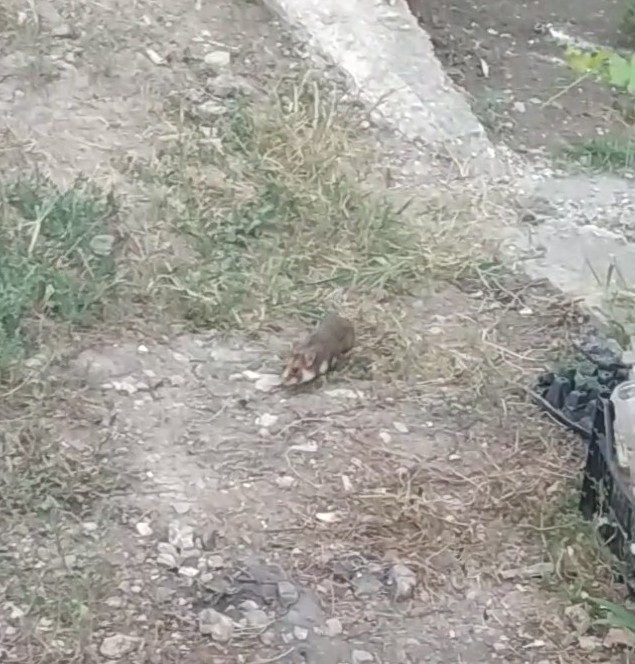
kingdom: Animalia
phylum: Chordata
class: Mammalia
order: Rodentia
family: Cricetidae
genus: Cricetus
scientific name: Cricetus cricetus
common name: Common hamster
